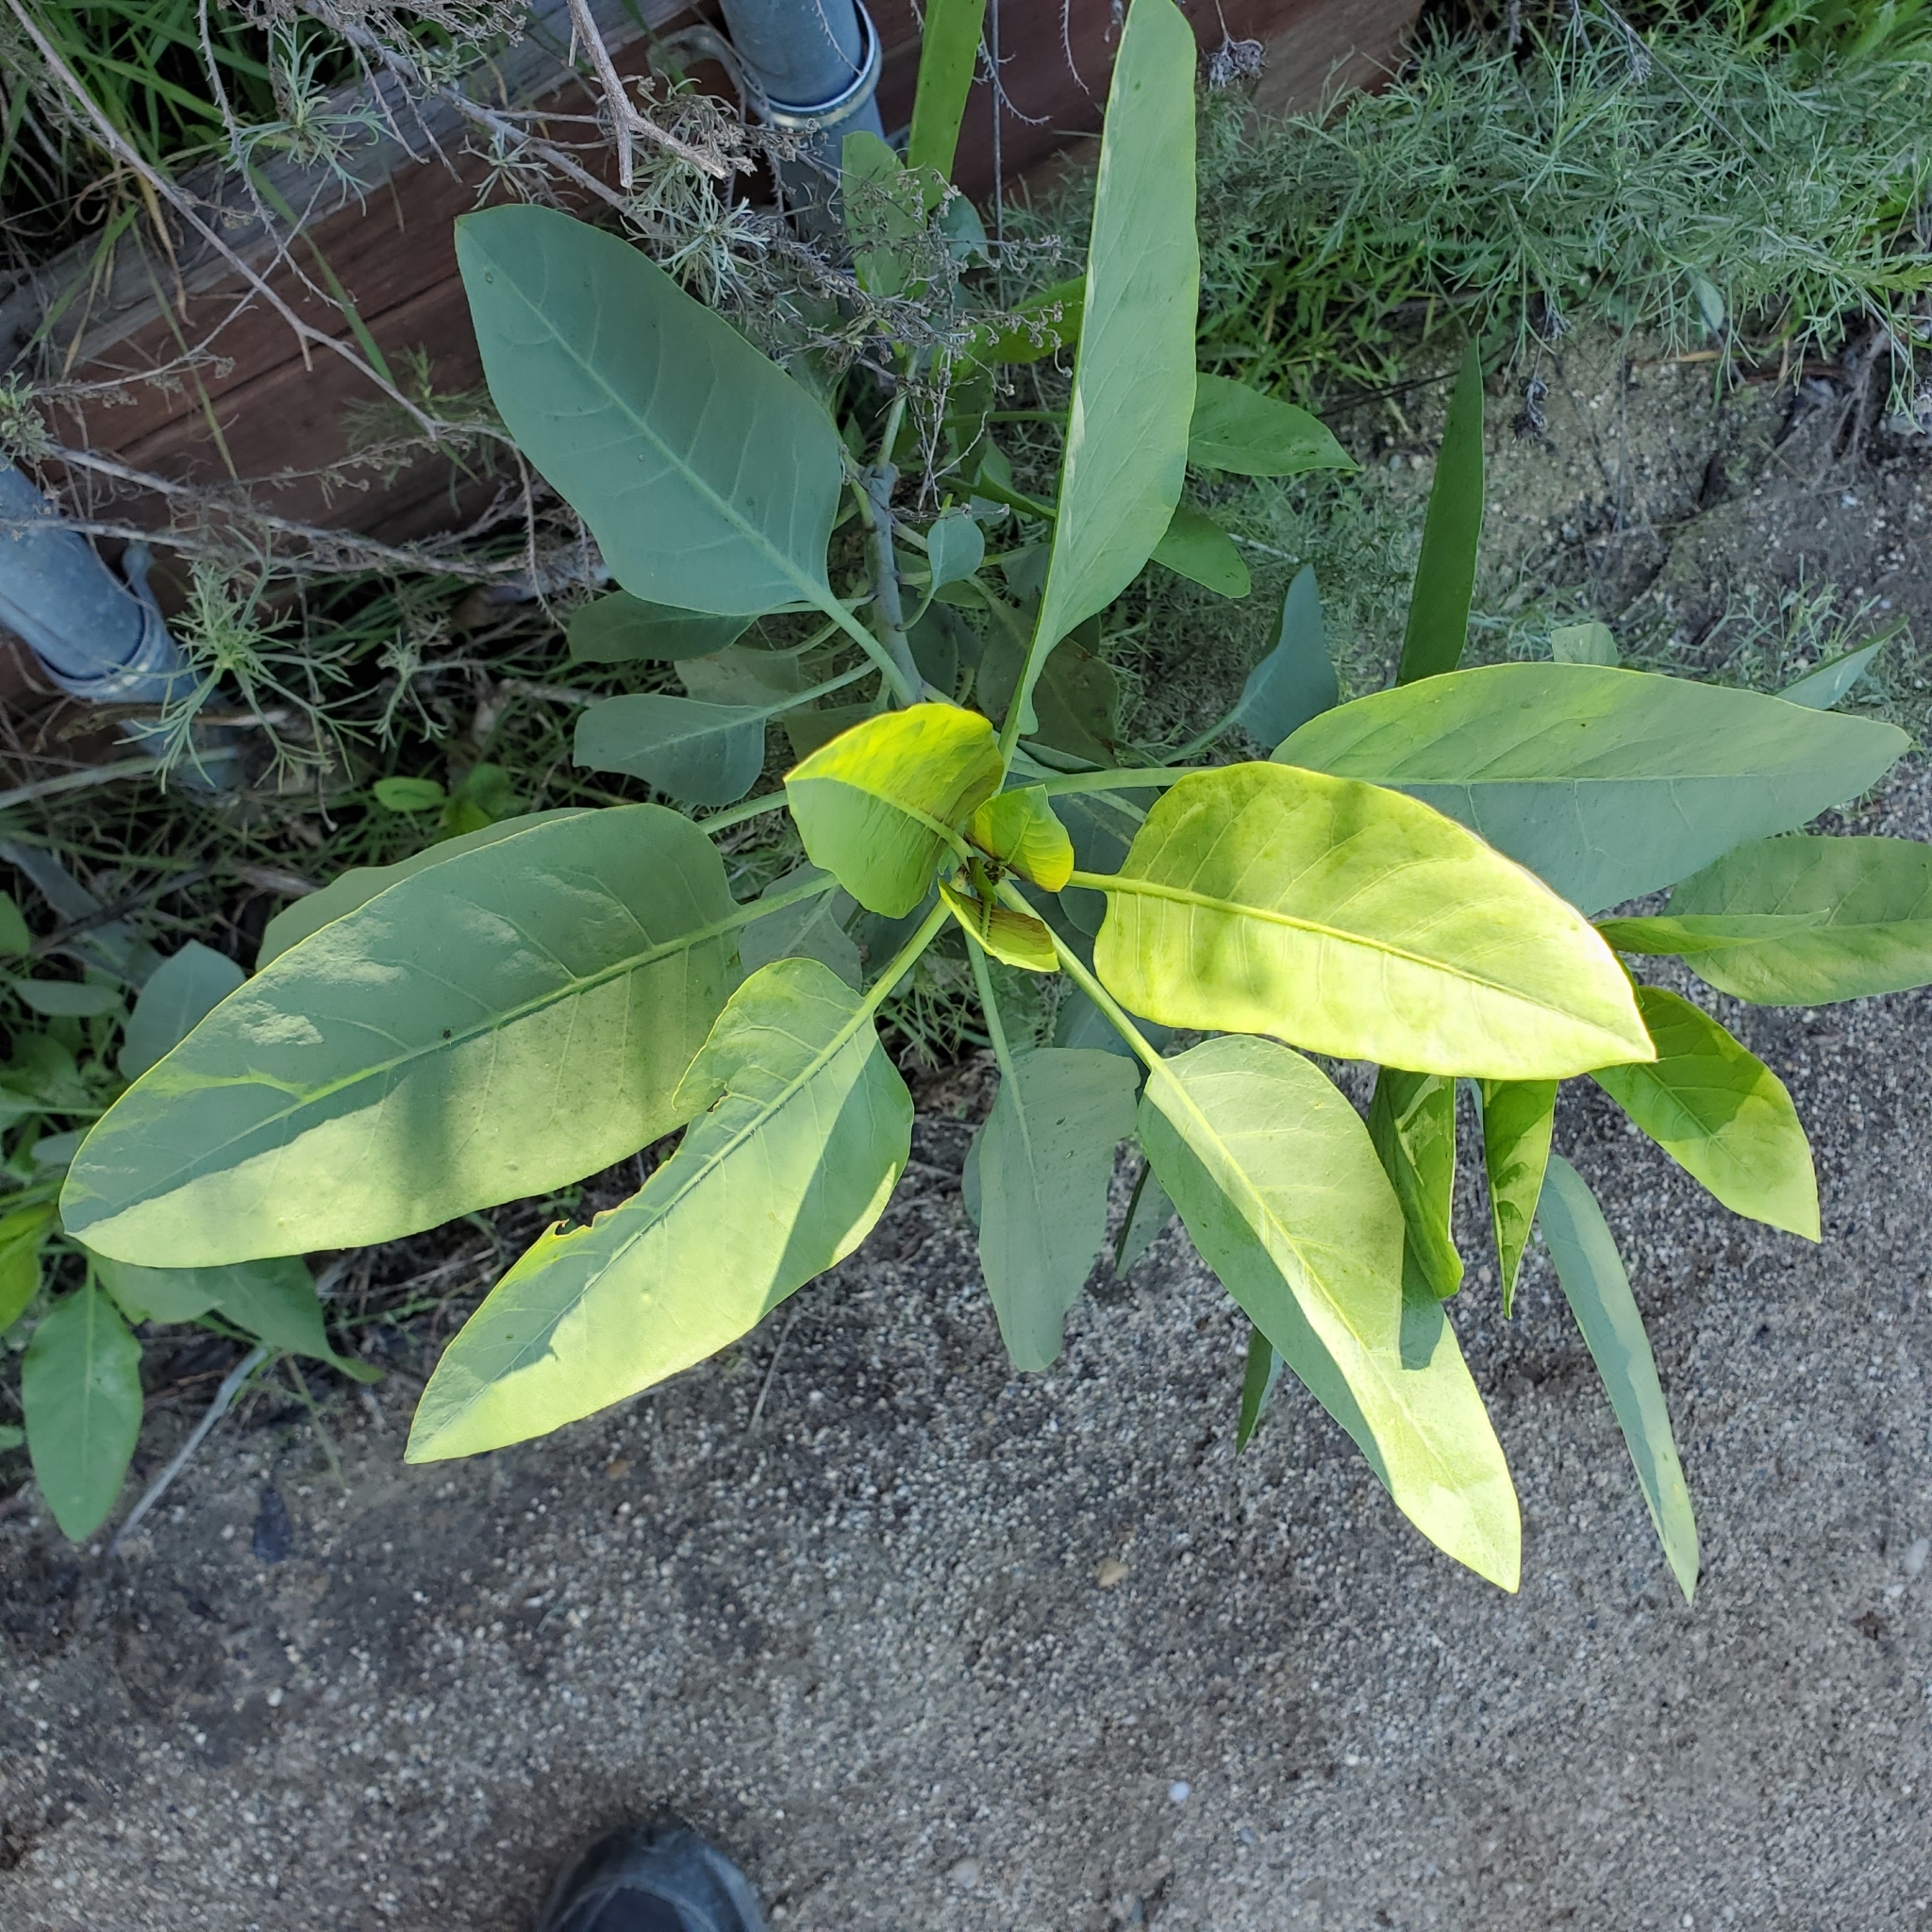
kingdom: Plantae
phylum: Tracheophyta
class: Magnoliopsida
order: Solanales
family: Solanaceae
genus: Nicotiana
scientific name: Nicotiana glauca
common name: Tree tobacco
